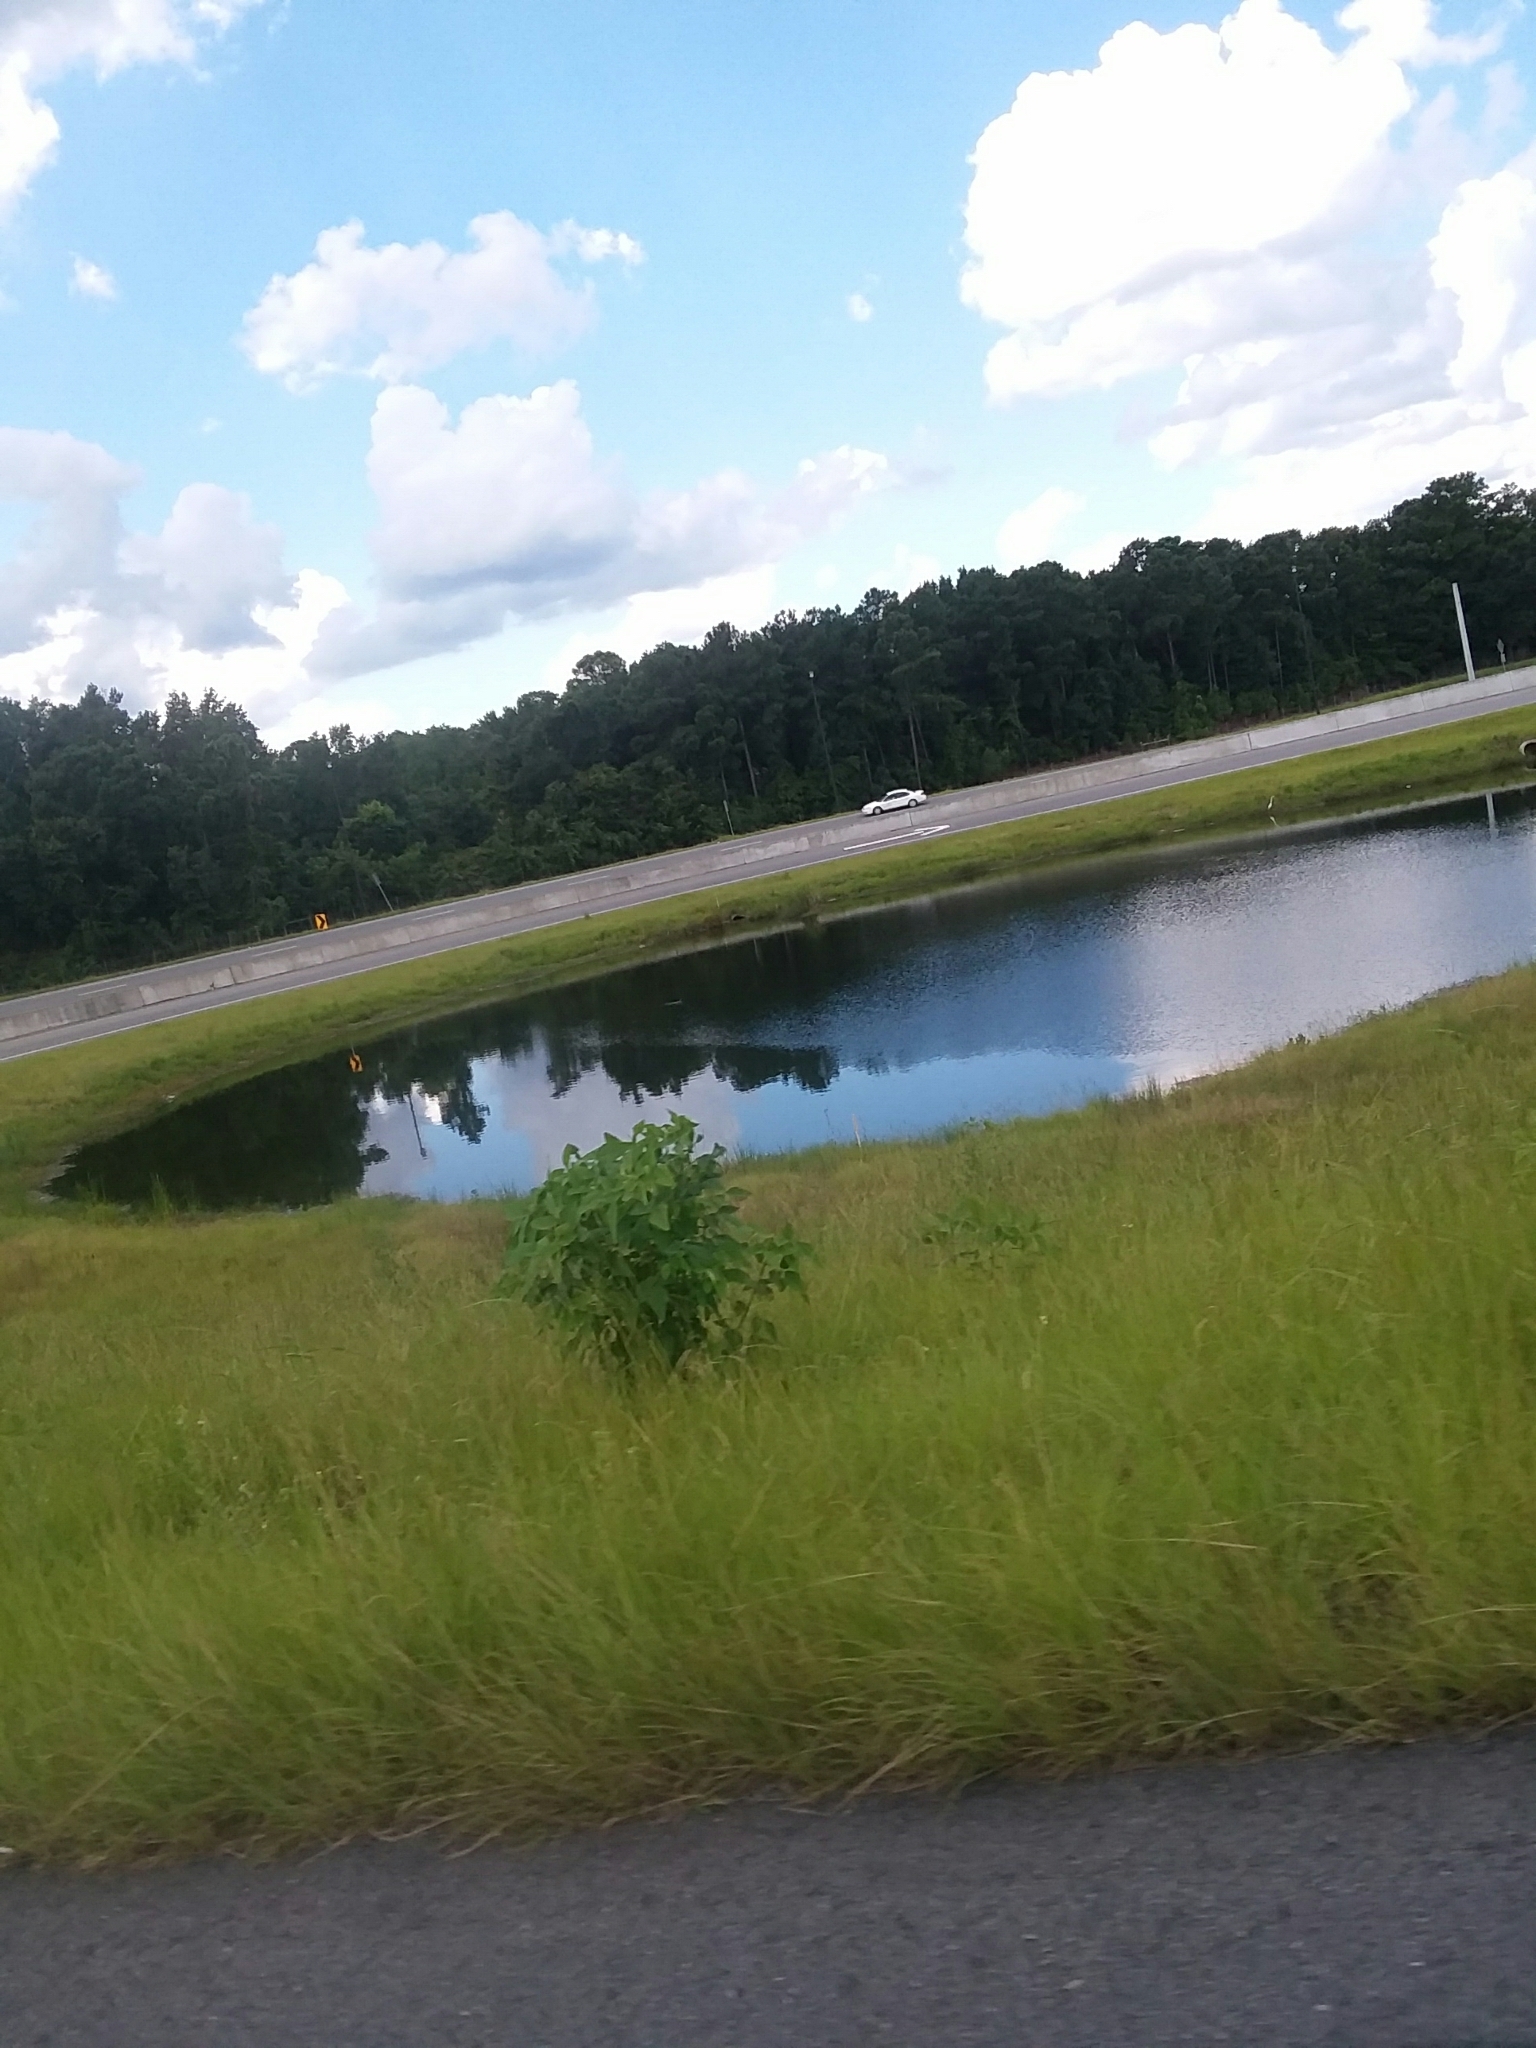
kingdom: Animalia
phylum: Chordata
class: Aves
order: Pelecaniformes
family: Ardeidae
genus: Ardea
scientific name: Ardea alba
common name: Great egret
